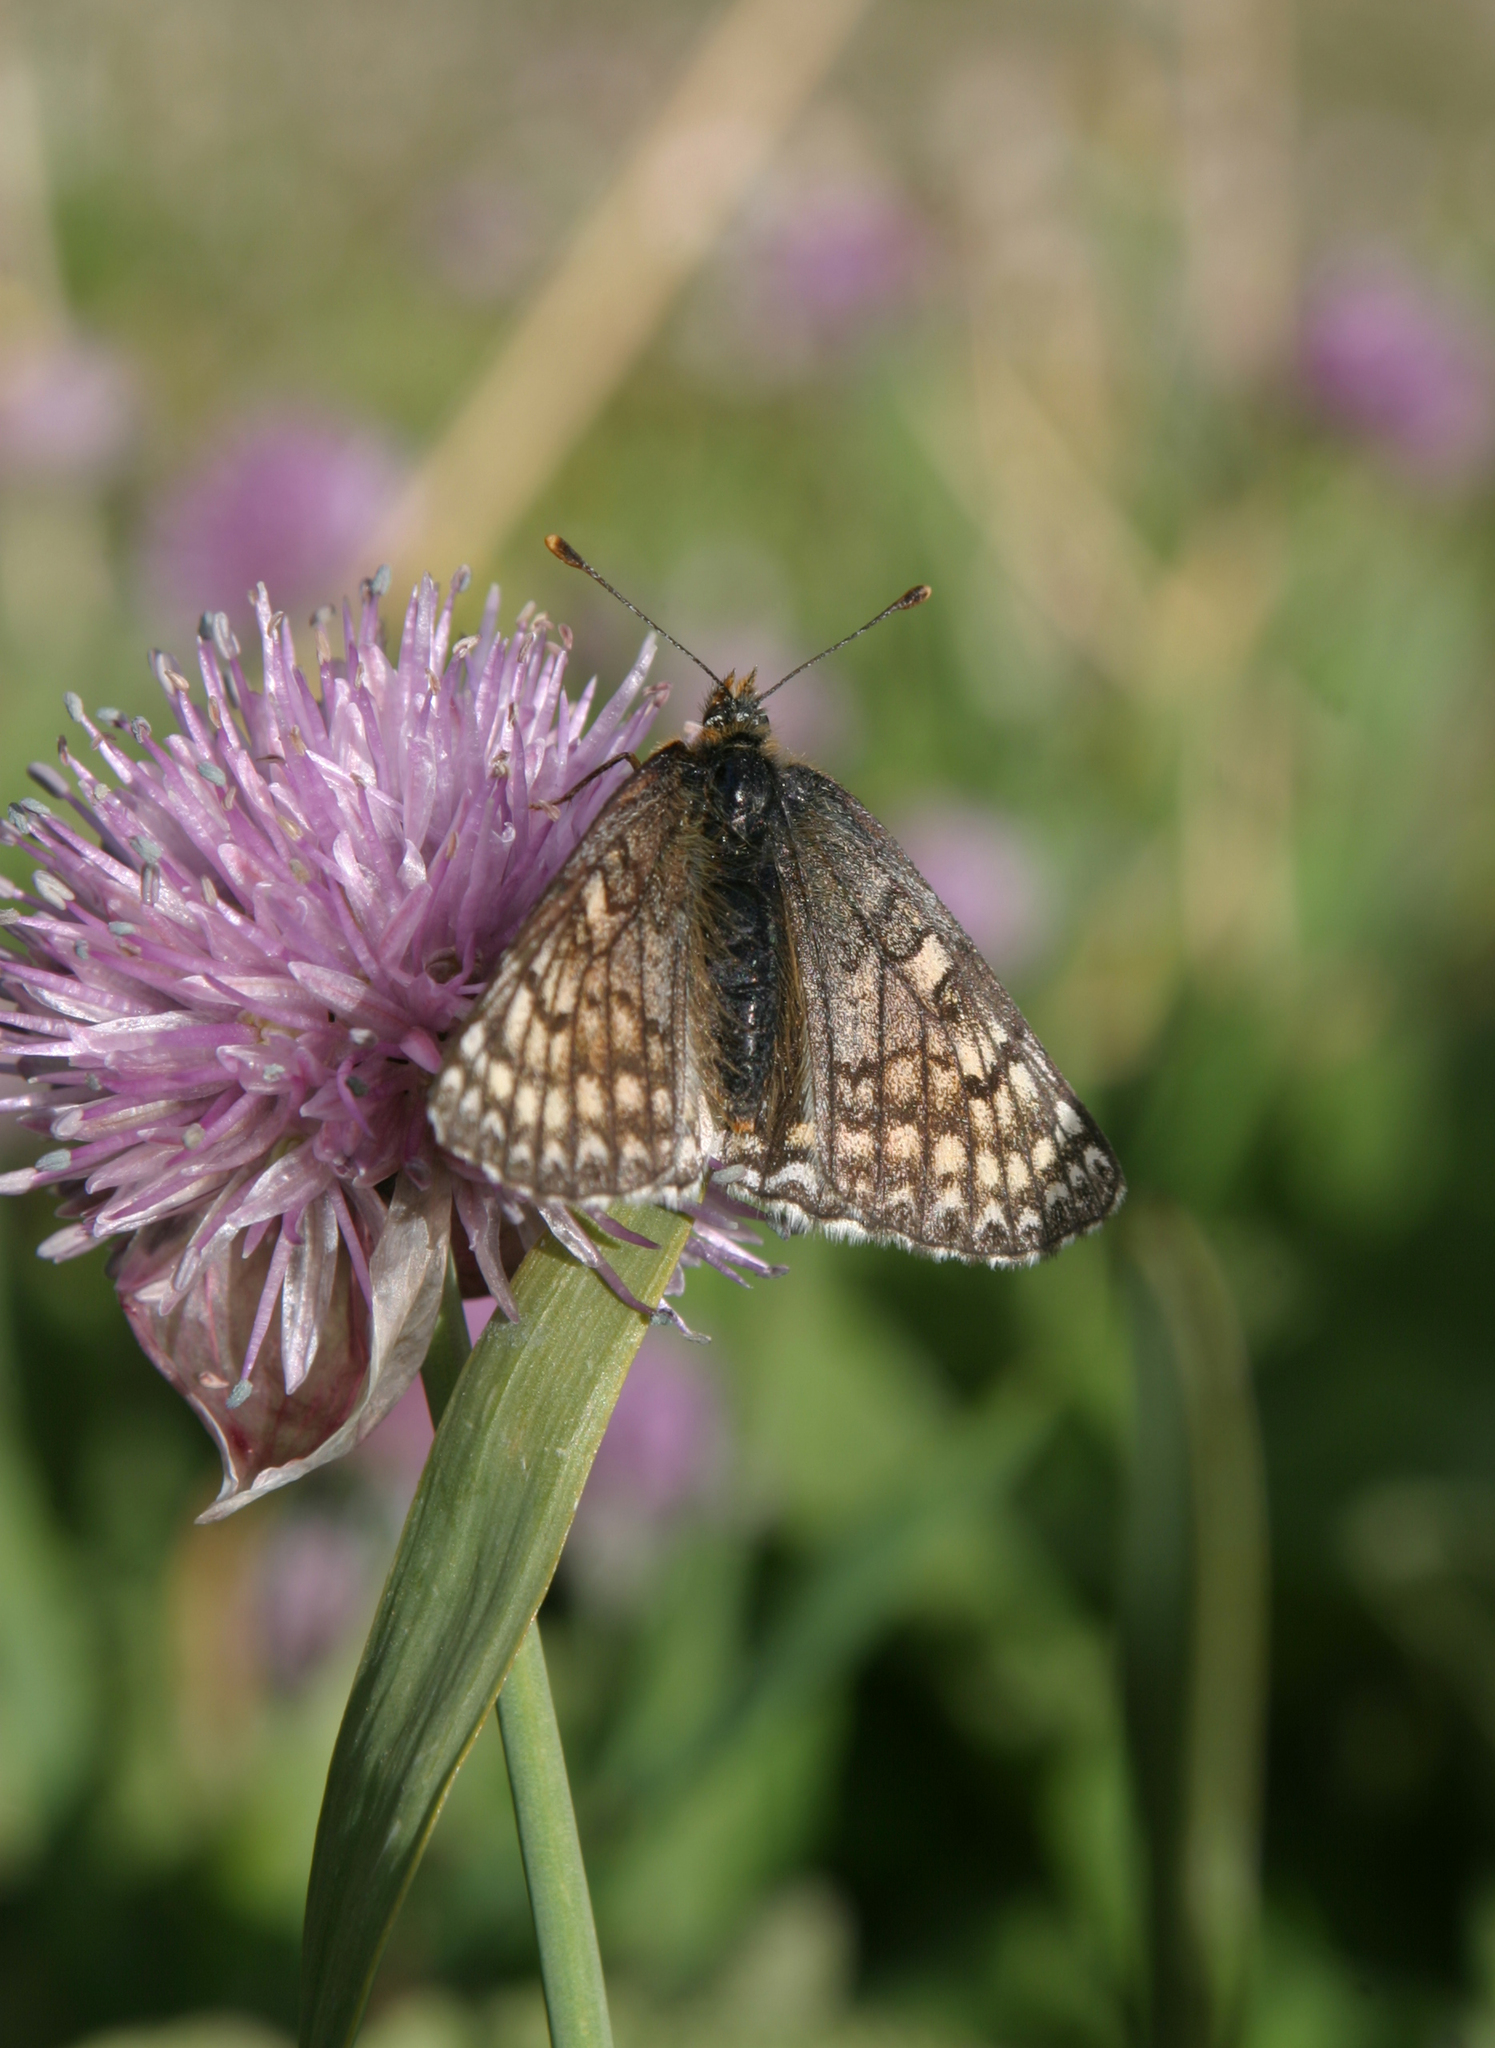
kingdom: Animalia
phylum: Arthropoda
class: Insecta
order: Lepidoptera
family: Nymphalidae
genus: Melitaea
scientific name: Melitaea turanica
